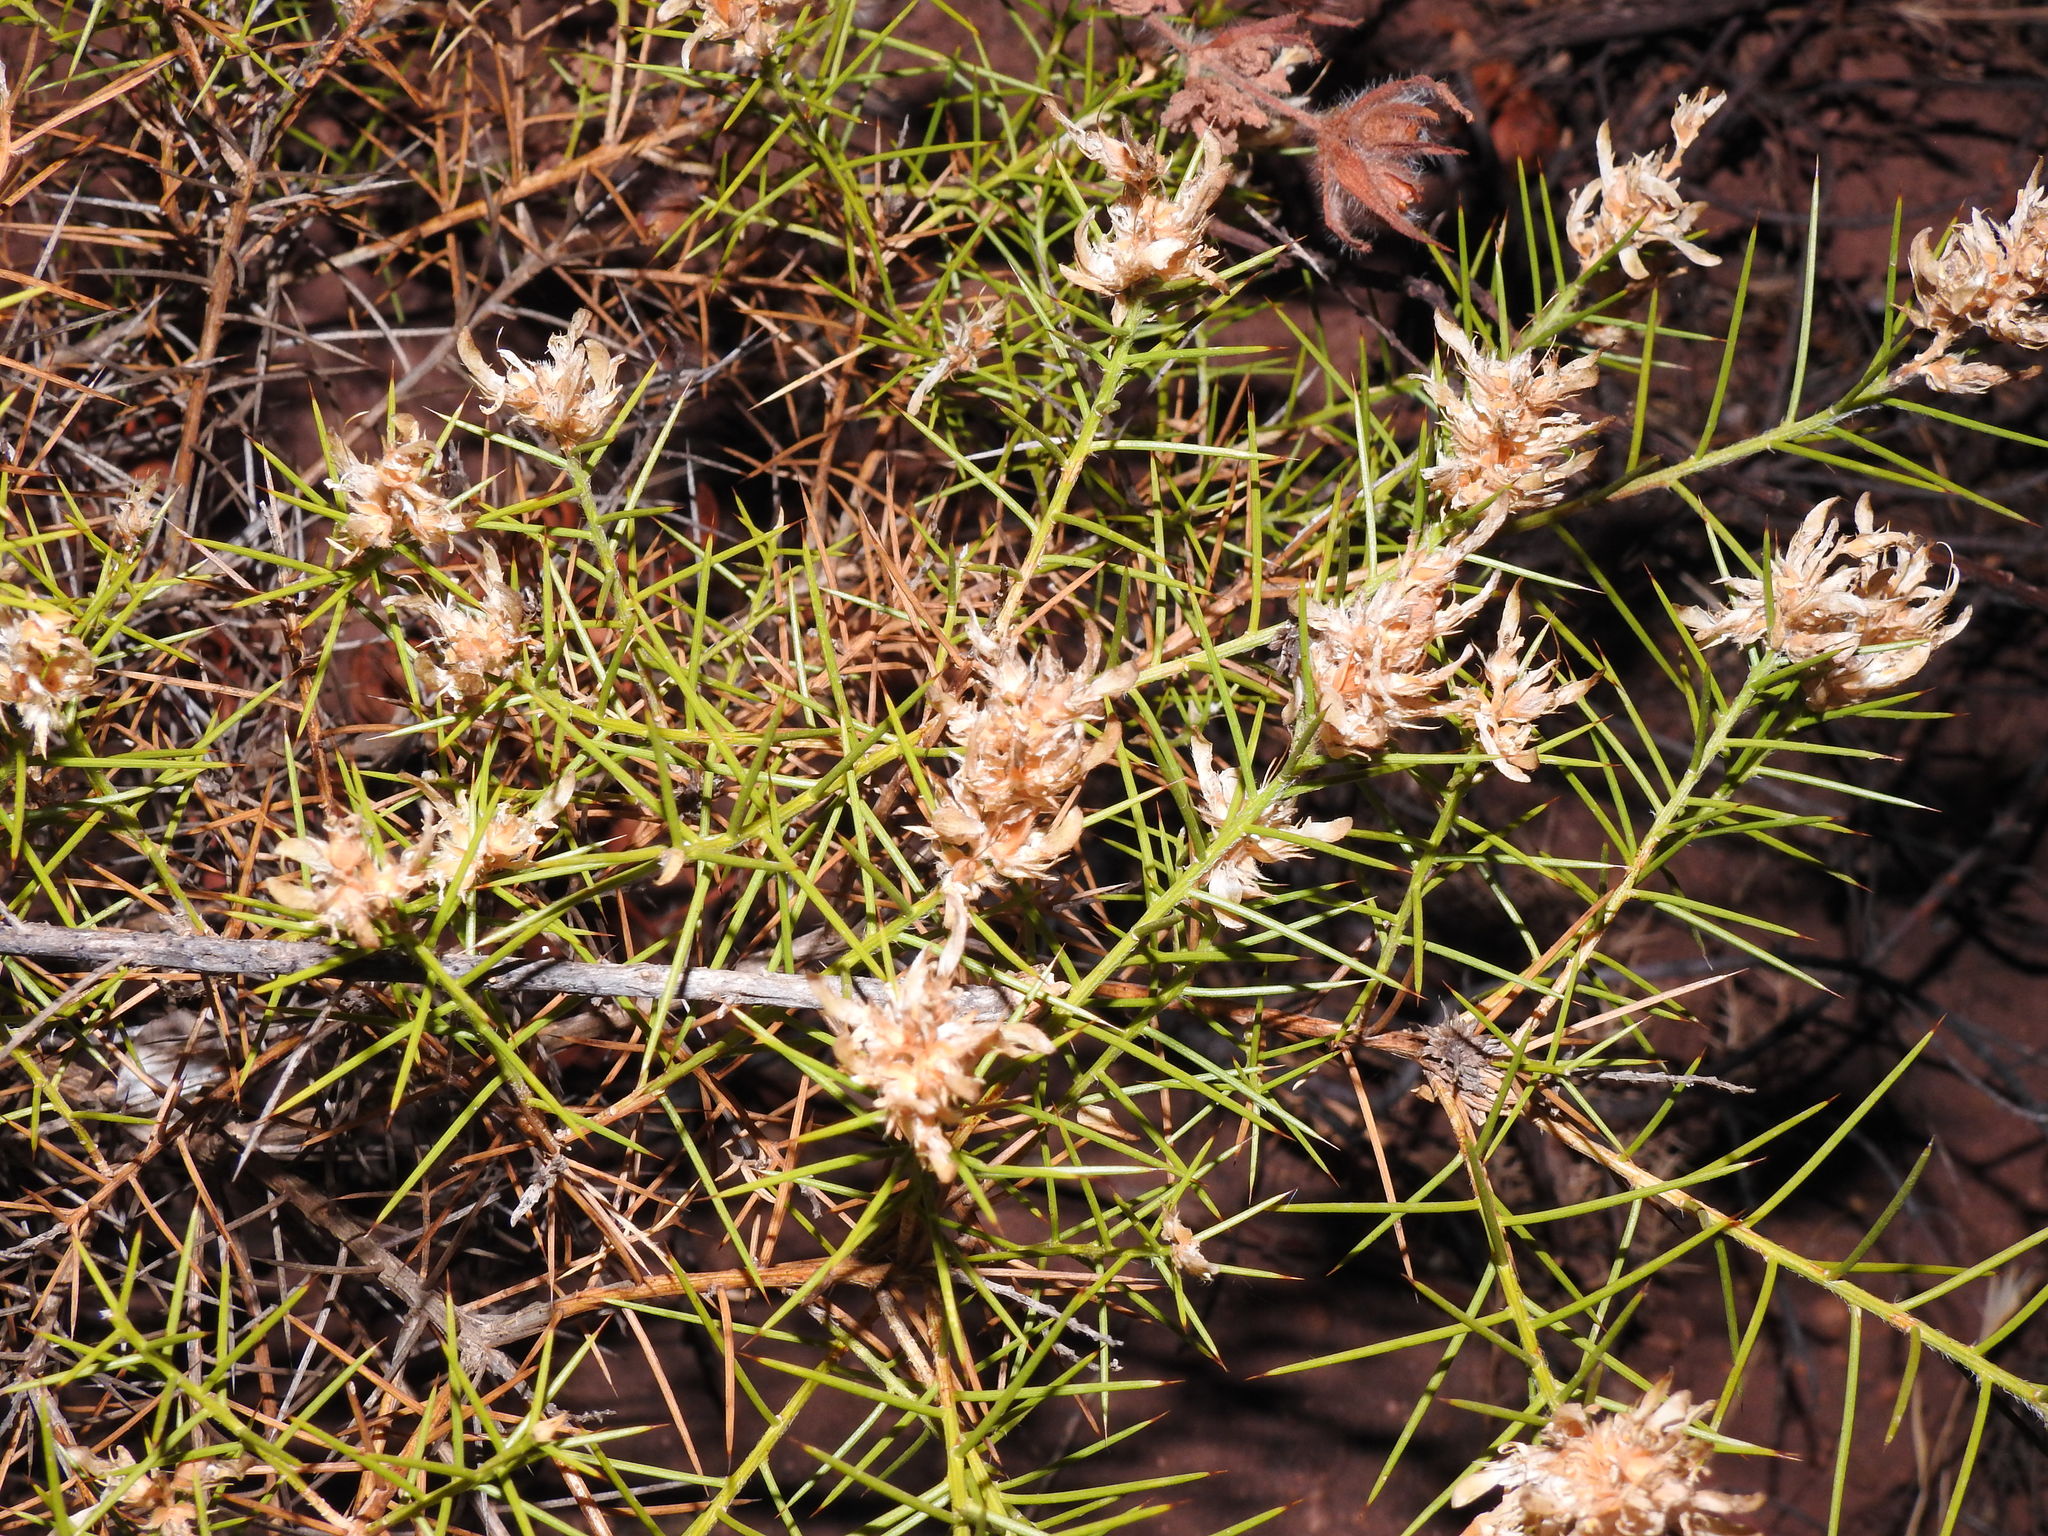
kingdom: Plantae
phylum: Tracheophyta
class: Magnoliopsida
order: Fabales
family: Fabaceae
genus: Genista
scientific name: Genista hirsuta
